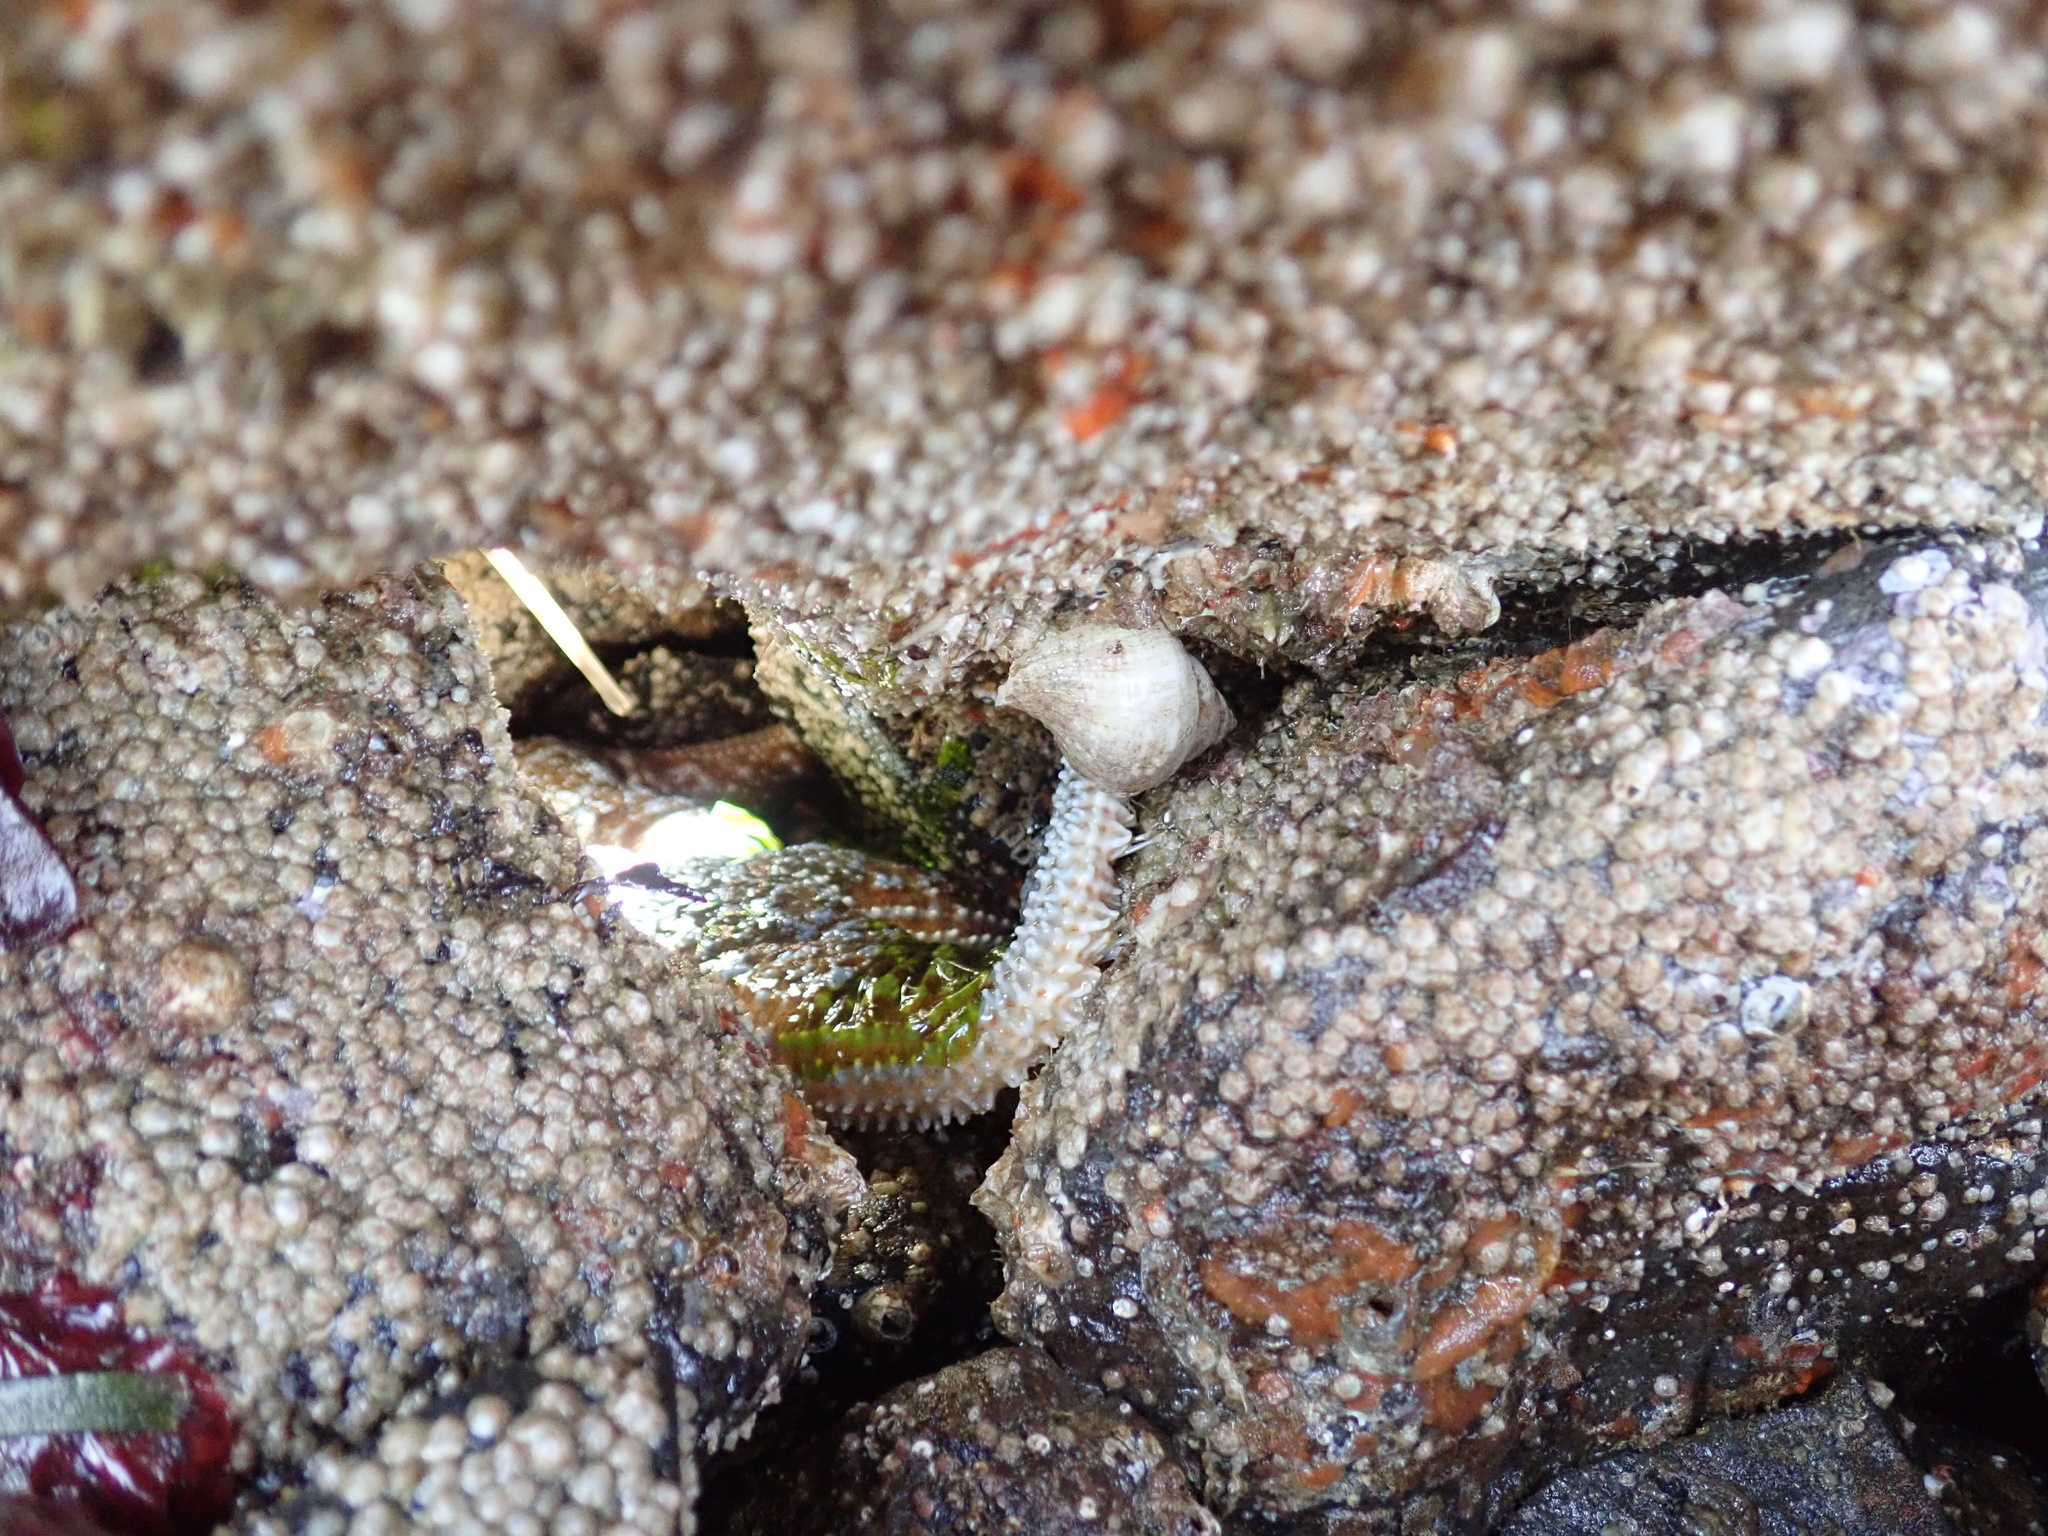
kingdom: Animalia
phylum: Echinodermata
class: Asteroidea
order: Forcipulatida
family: Asteriidae
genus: Evasterias
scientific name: Evasterias troschelii
